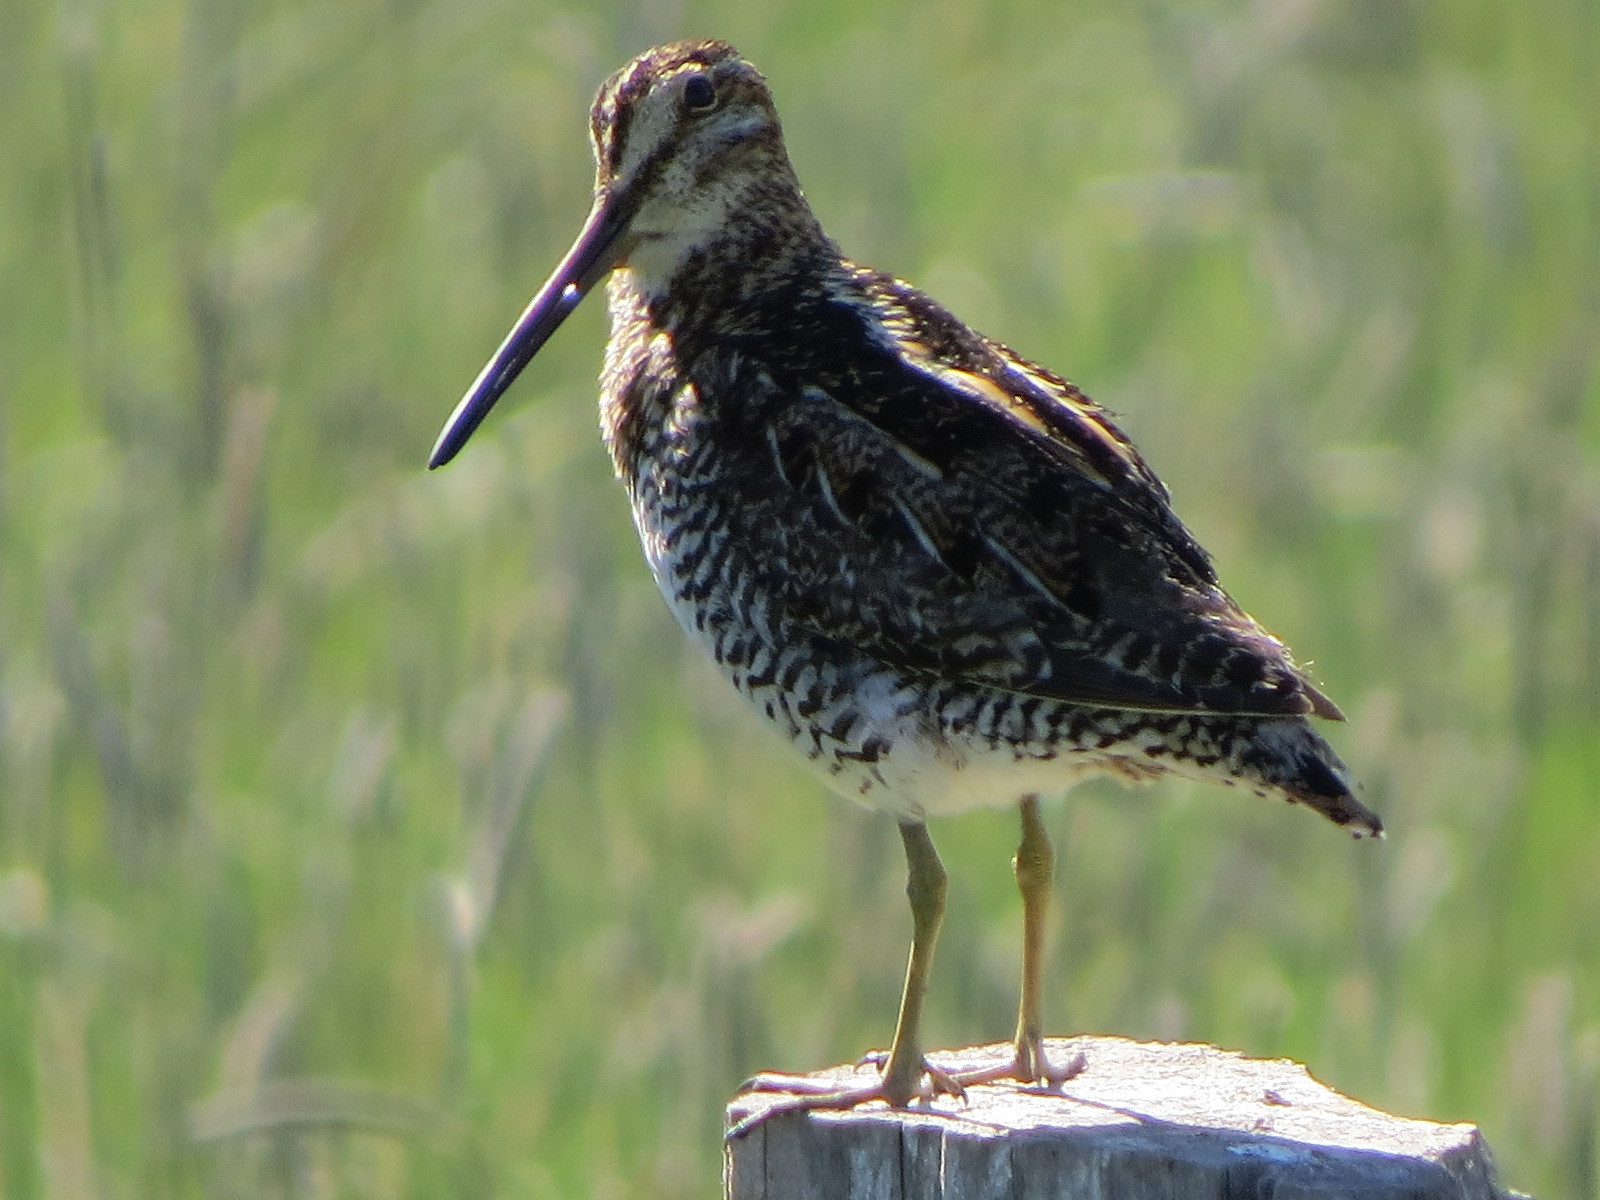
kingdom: Animalia
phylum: Chordata
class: Aves
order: Charadriiformes
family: Scolopacidae
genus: Gallinago
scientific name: Gallinago delicata
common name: Wilson's snipe
